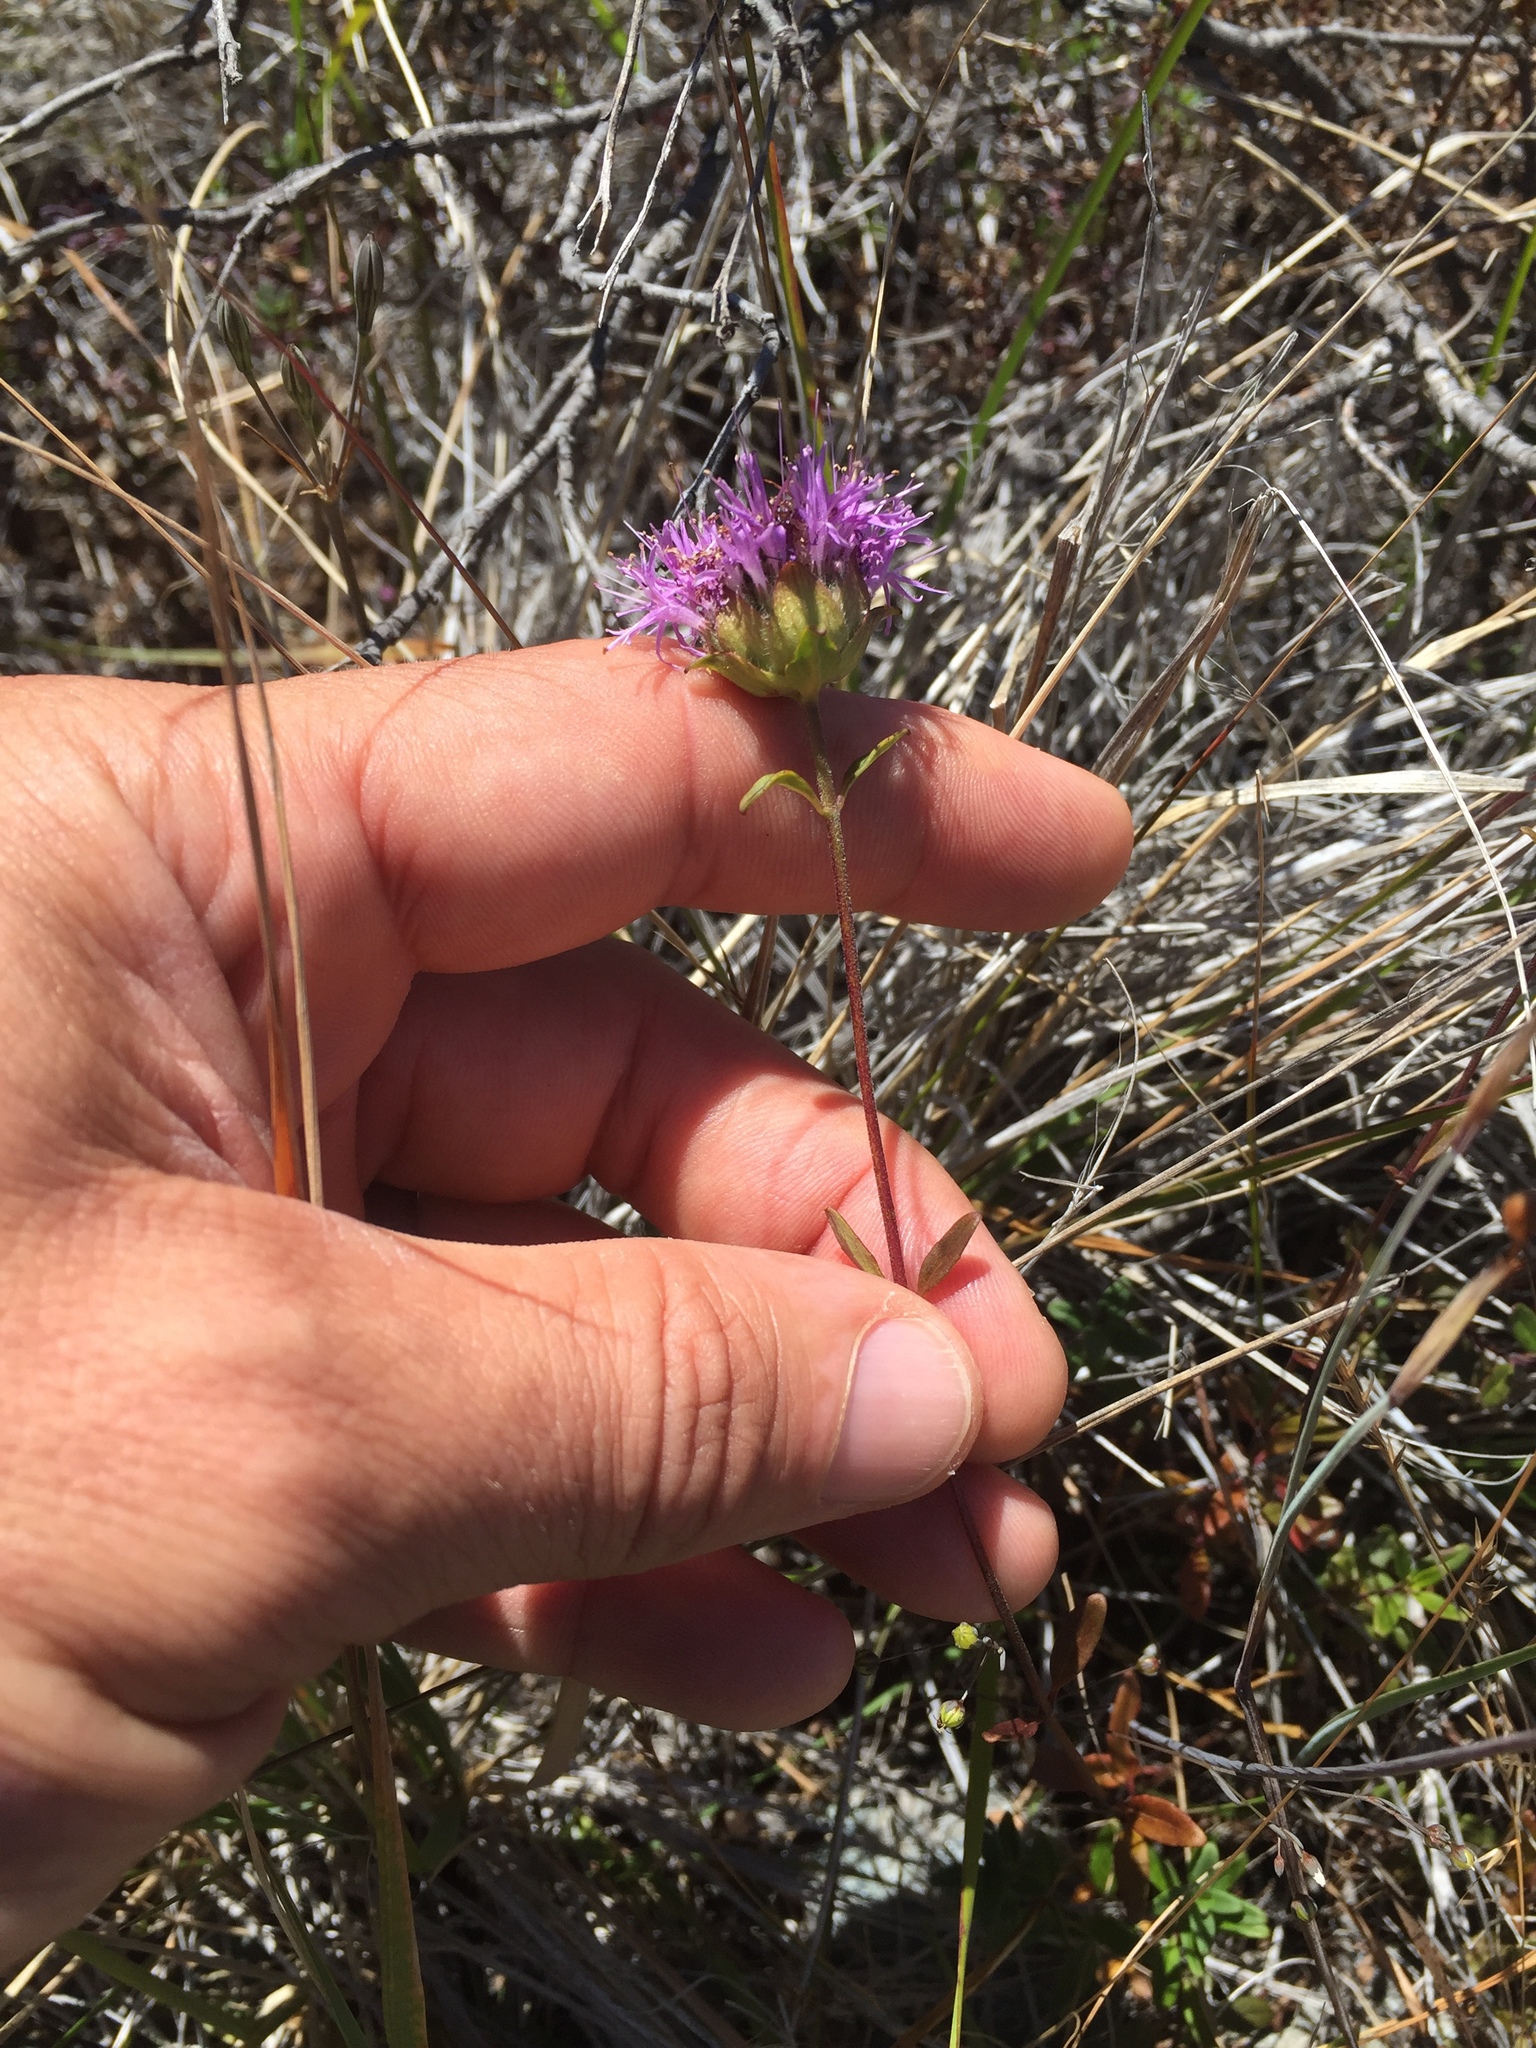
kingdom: Plantae
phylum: Tracheophyta
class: Magnoliopsida
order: Lamiales
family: Lamiaceae
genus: Monardella
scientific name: Monardella purpurea
